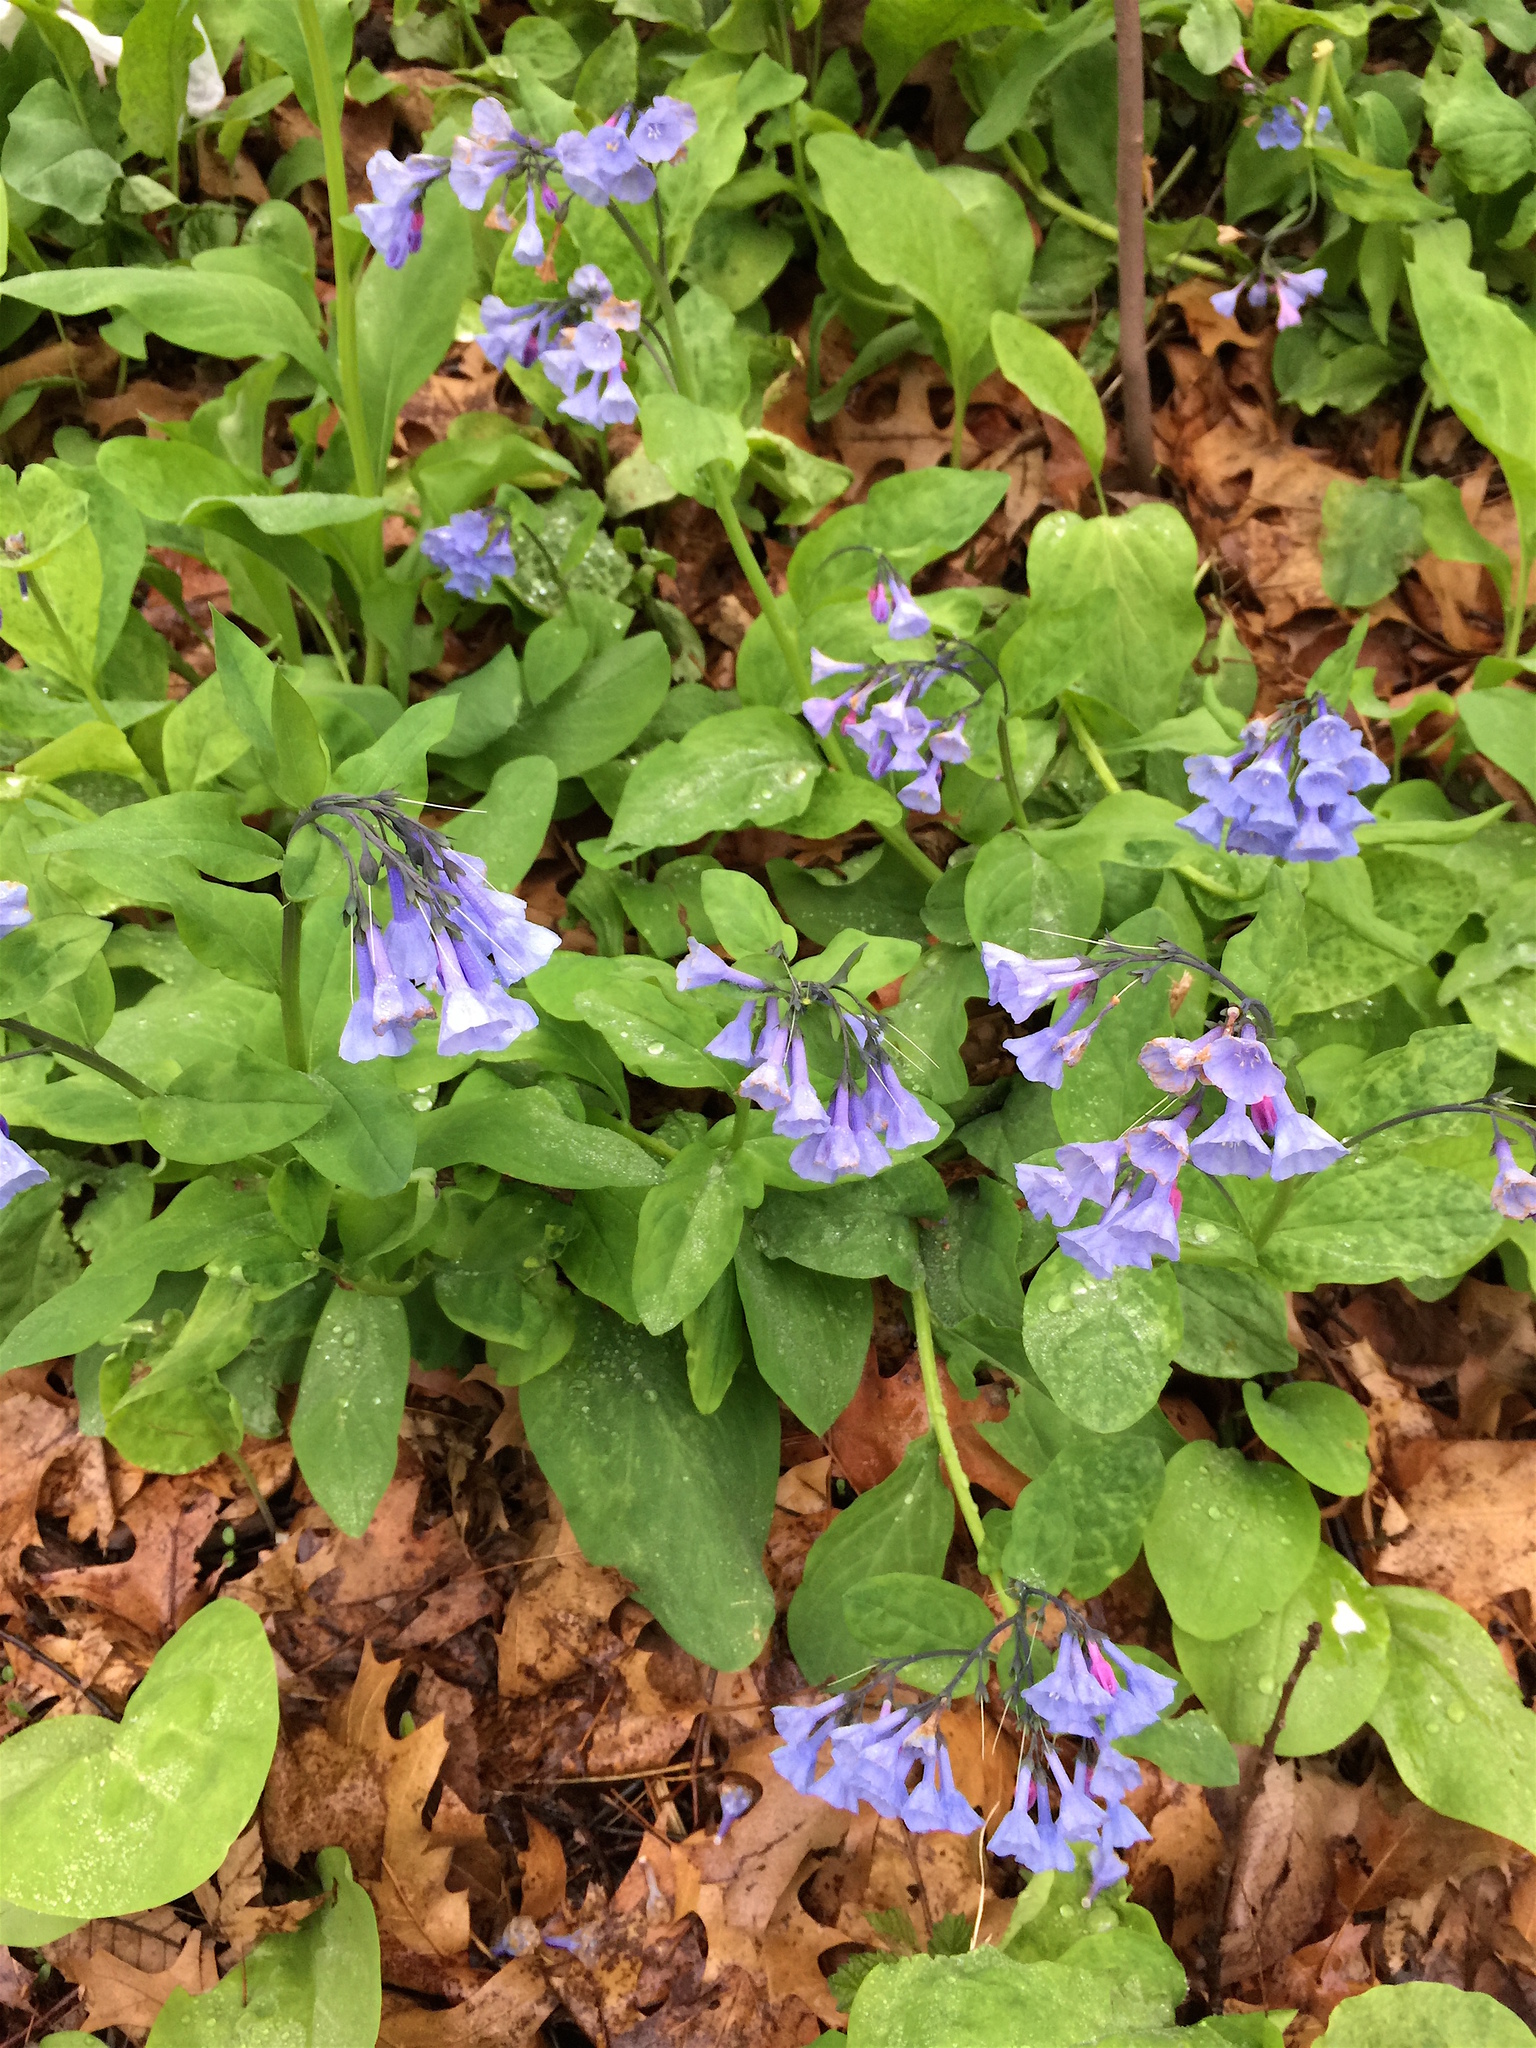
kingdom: Plantae
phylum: Tracheophyta
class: Magnoliopsida
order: Boraginales
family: Boraginaceae
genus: Mertensia
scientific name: Mertensia virginica
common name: Virginia bluebells
